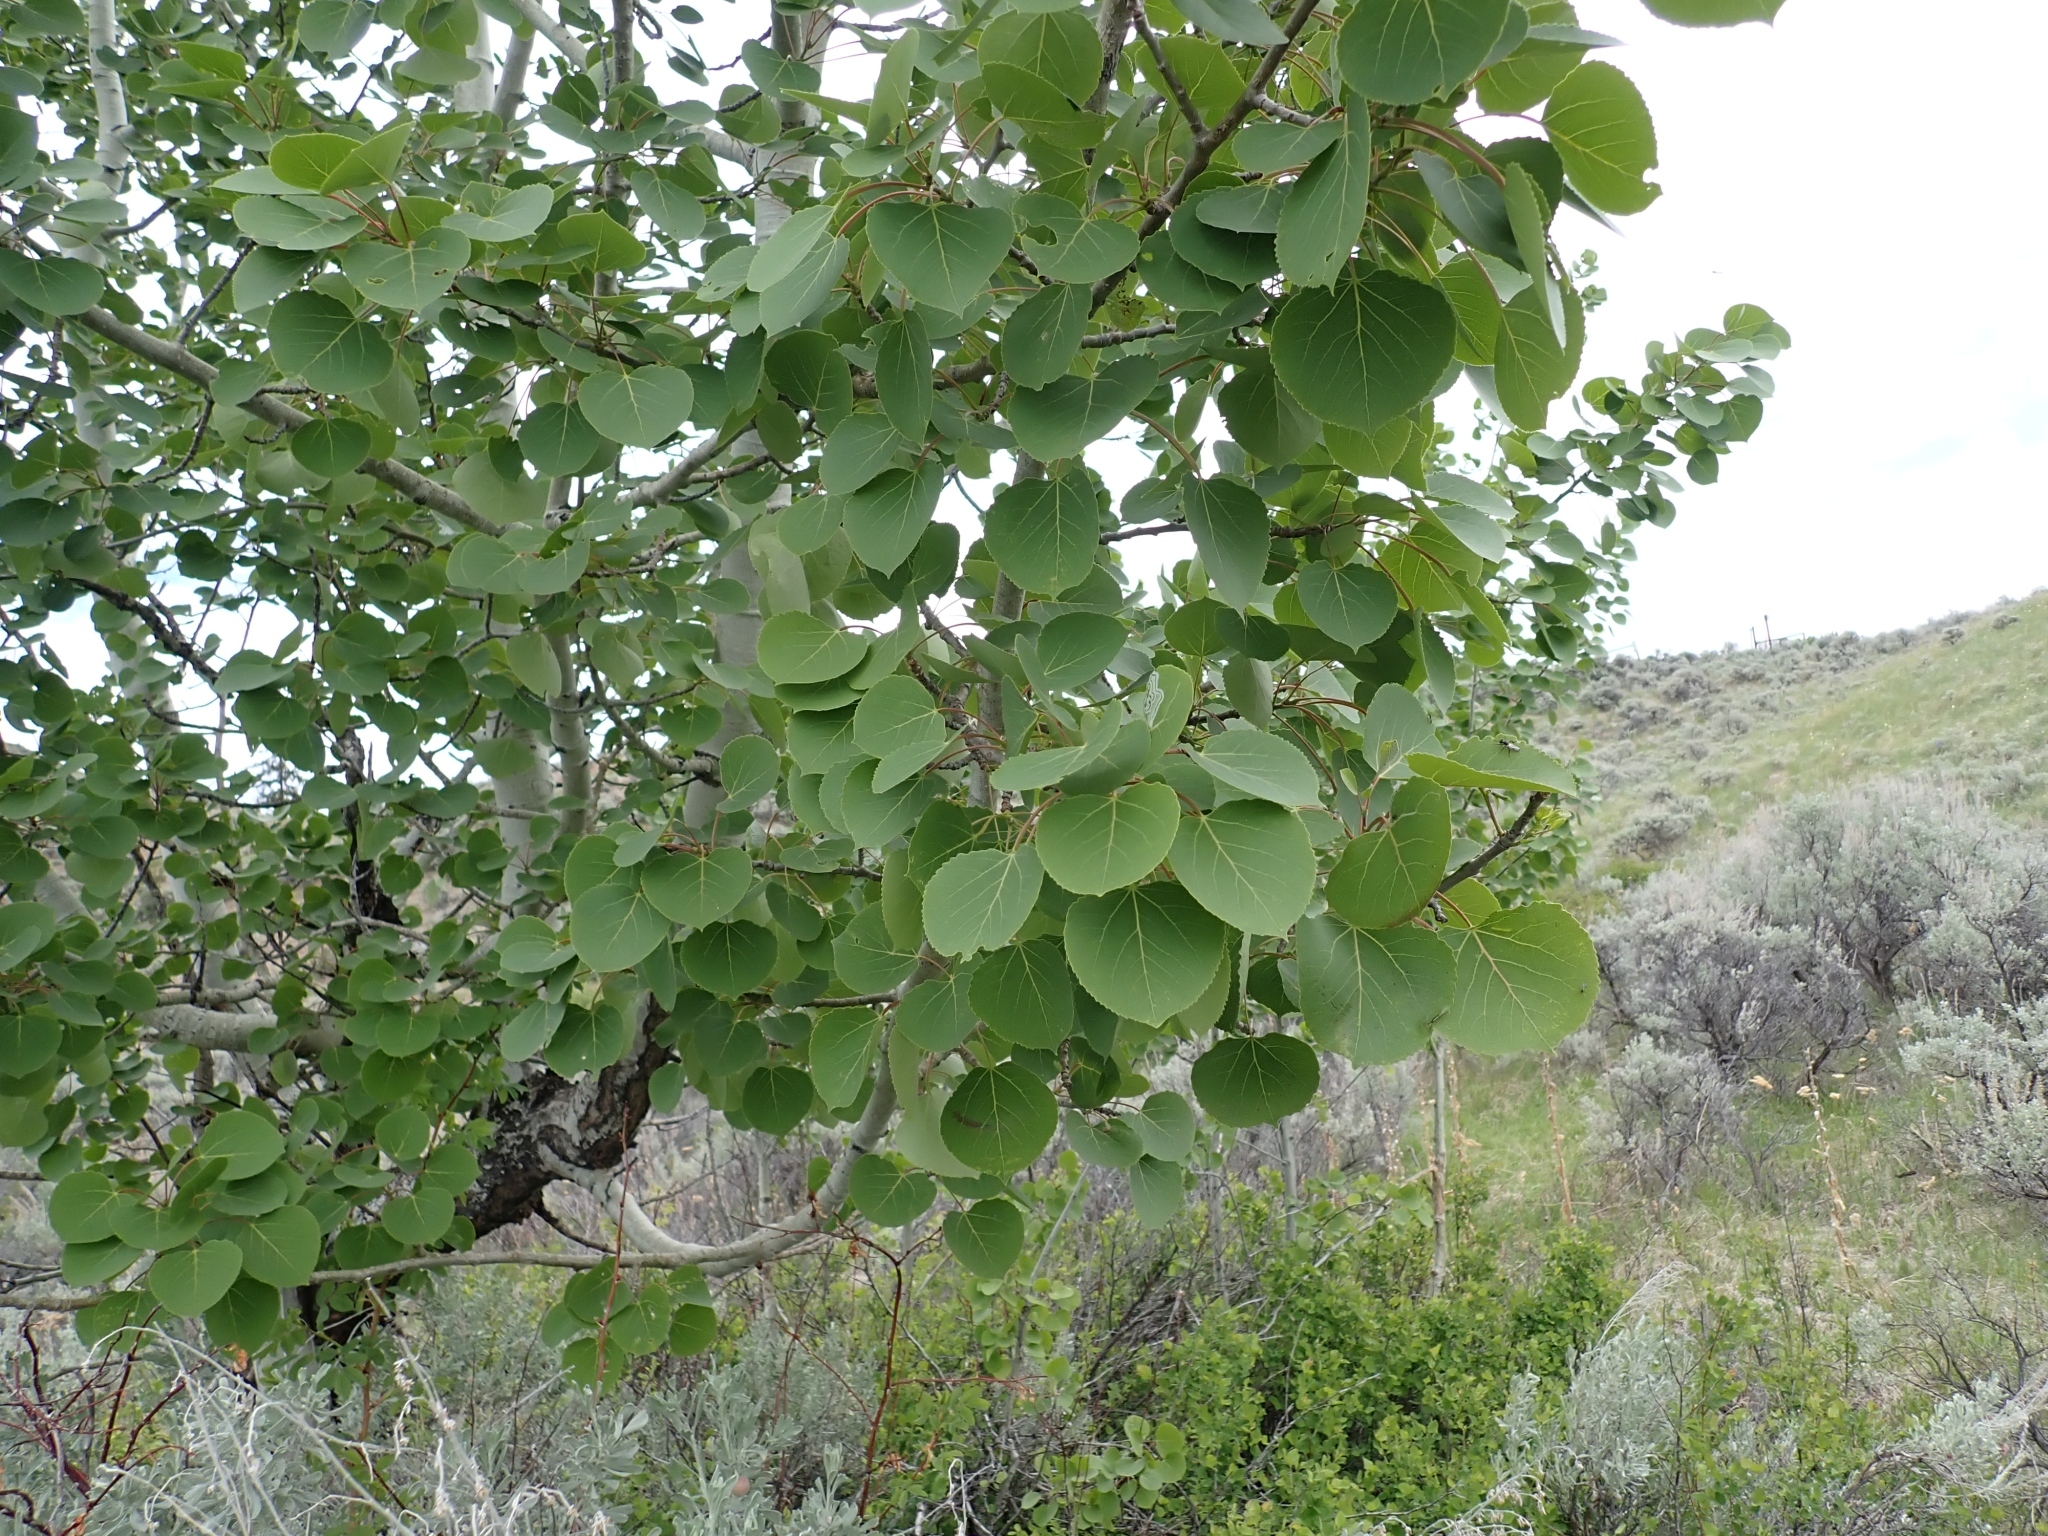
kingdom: Plantae
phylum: Tracheophyta
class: Magnoliopsida
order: Malpighiales
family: Salicaceae
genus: Populus
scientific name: Populus tremuloides
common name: Quaking aspen
